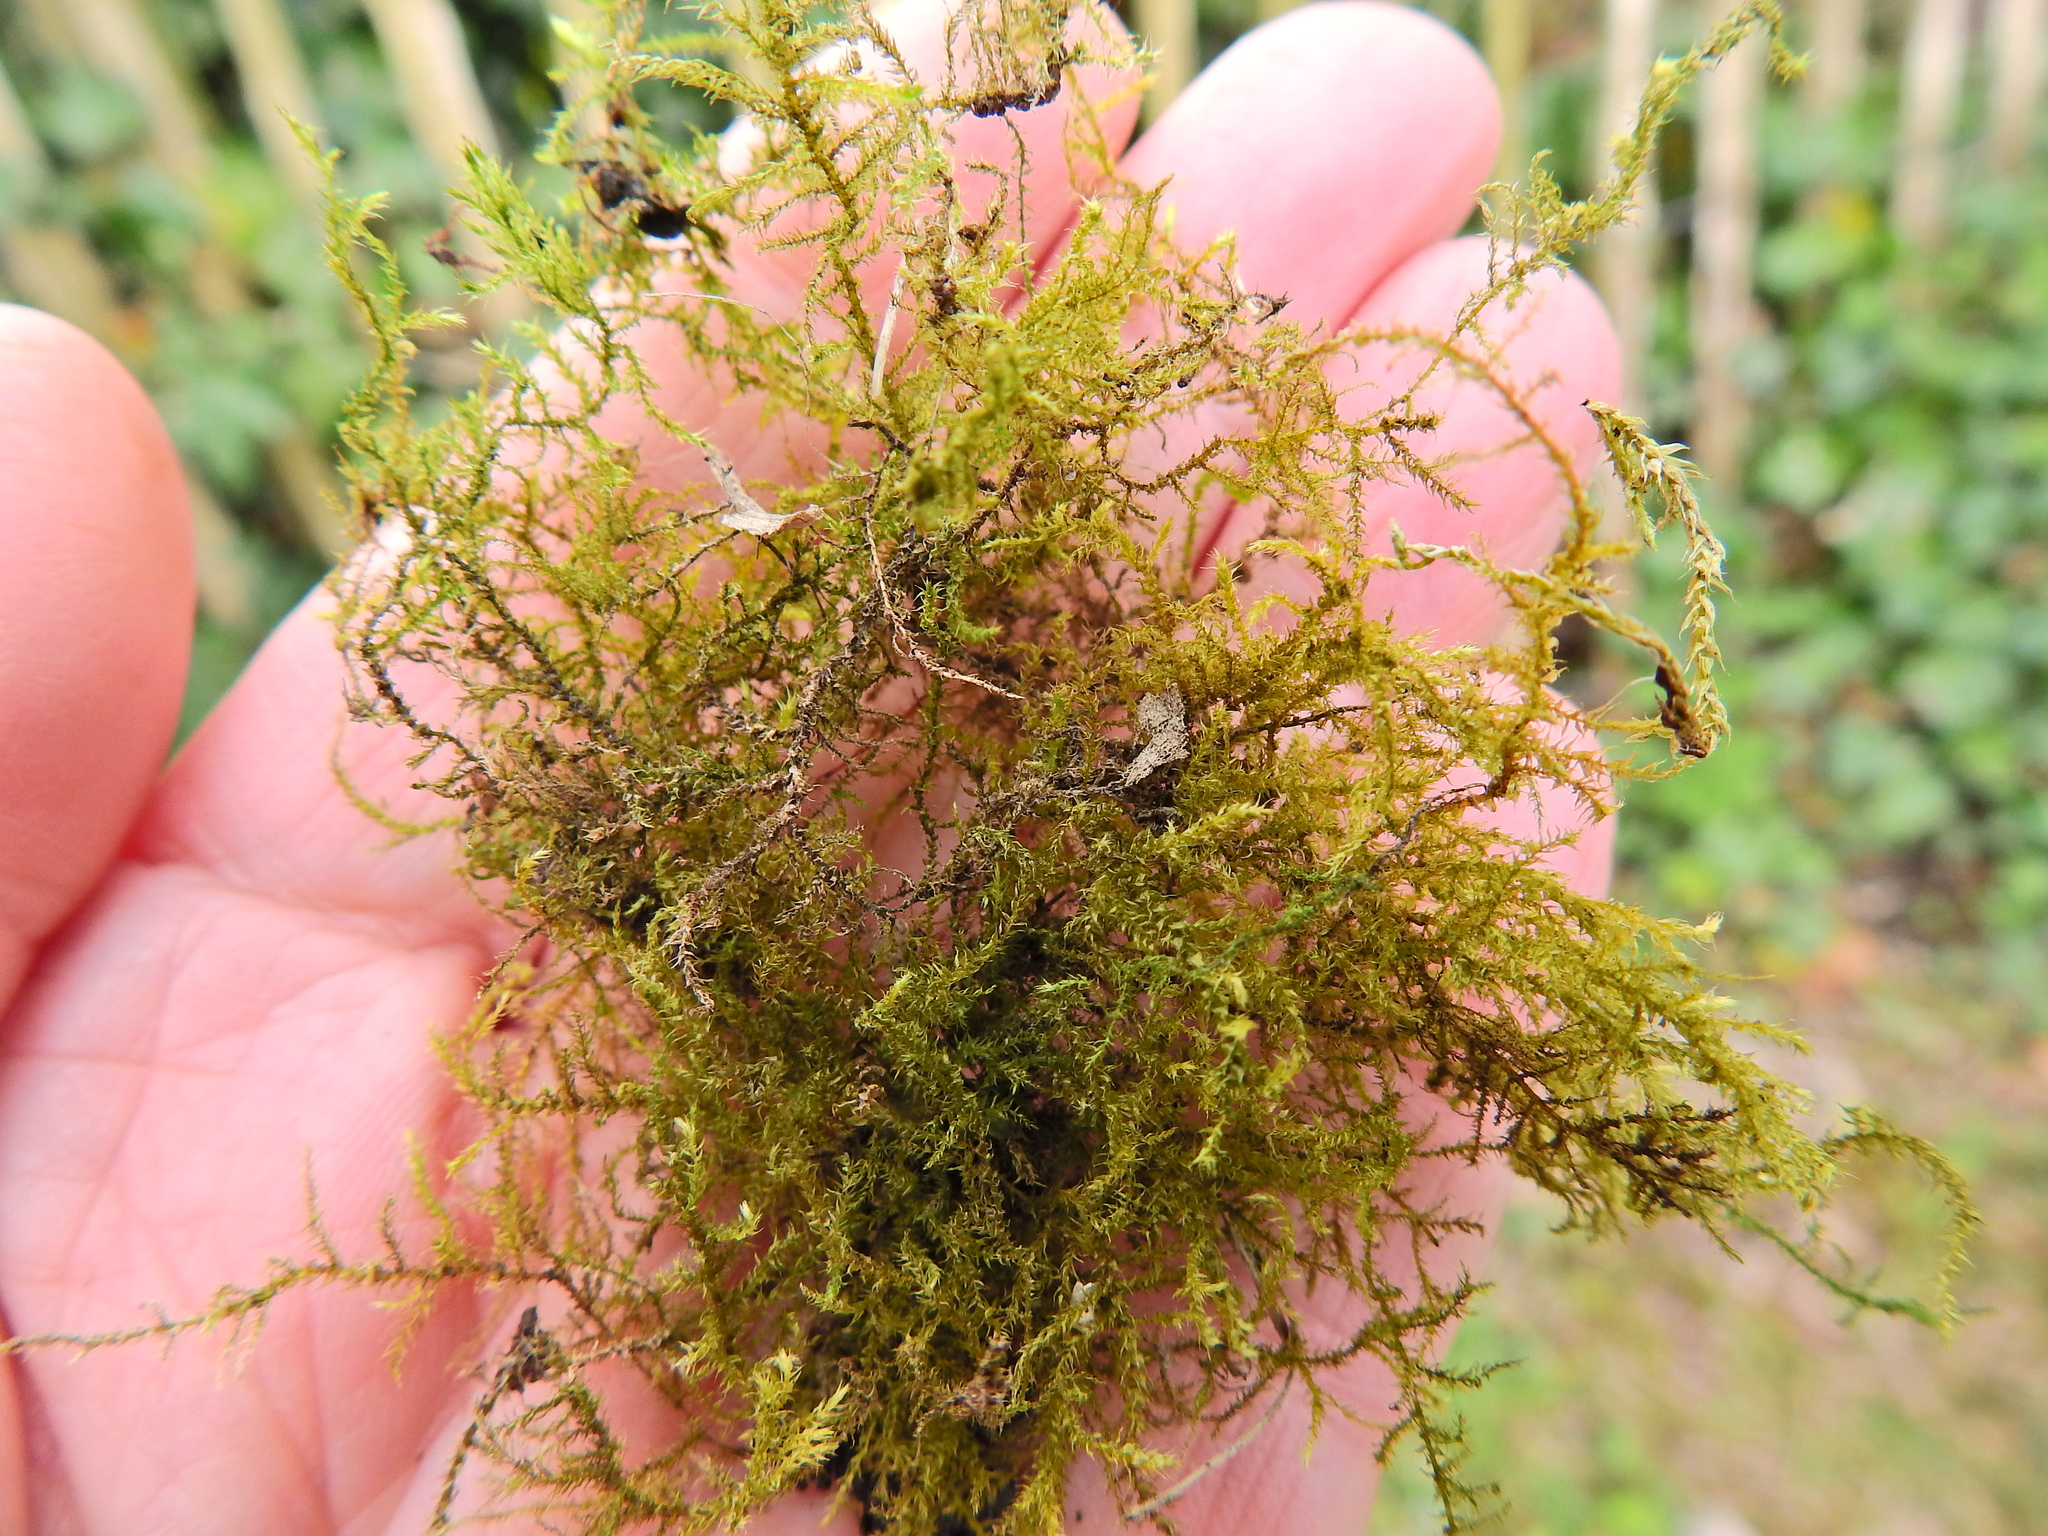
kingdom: Plantae
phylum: Bryophyta
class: Bryopsida
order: Hypnales
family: Brachytheciaceae
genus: Oxyrrhynchium
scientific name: Oxyrrhynchium hians
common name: Spreading beaked moss
